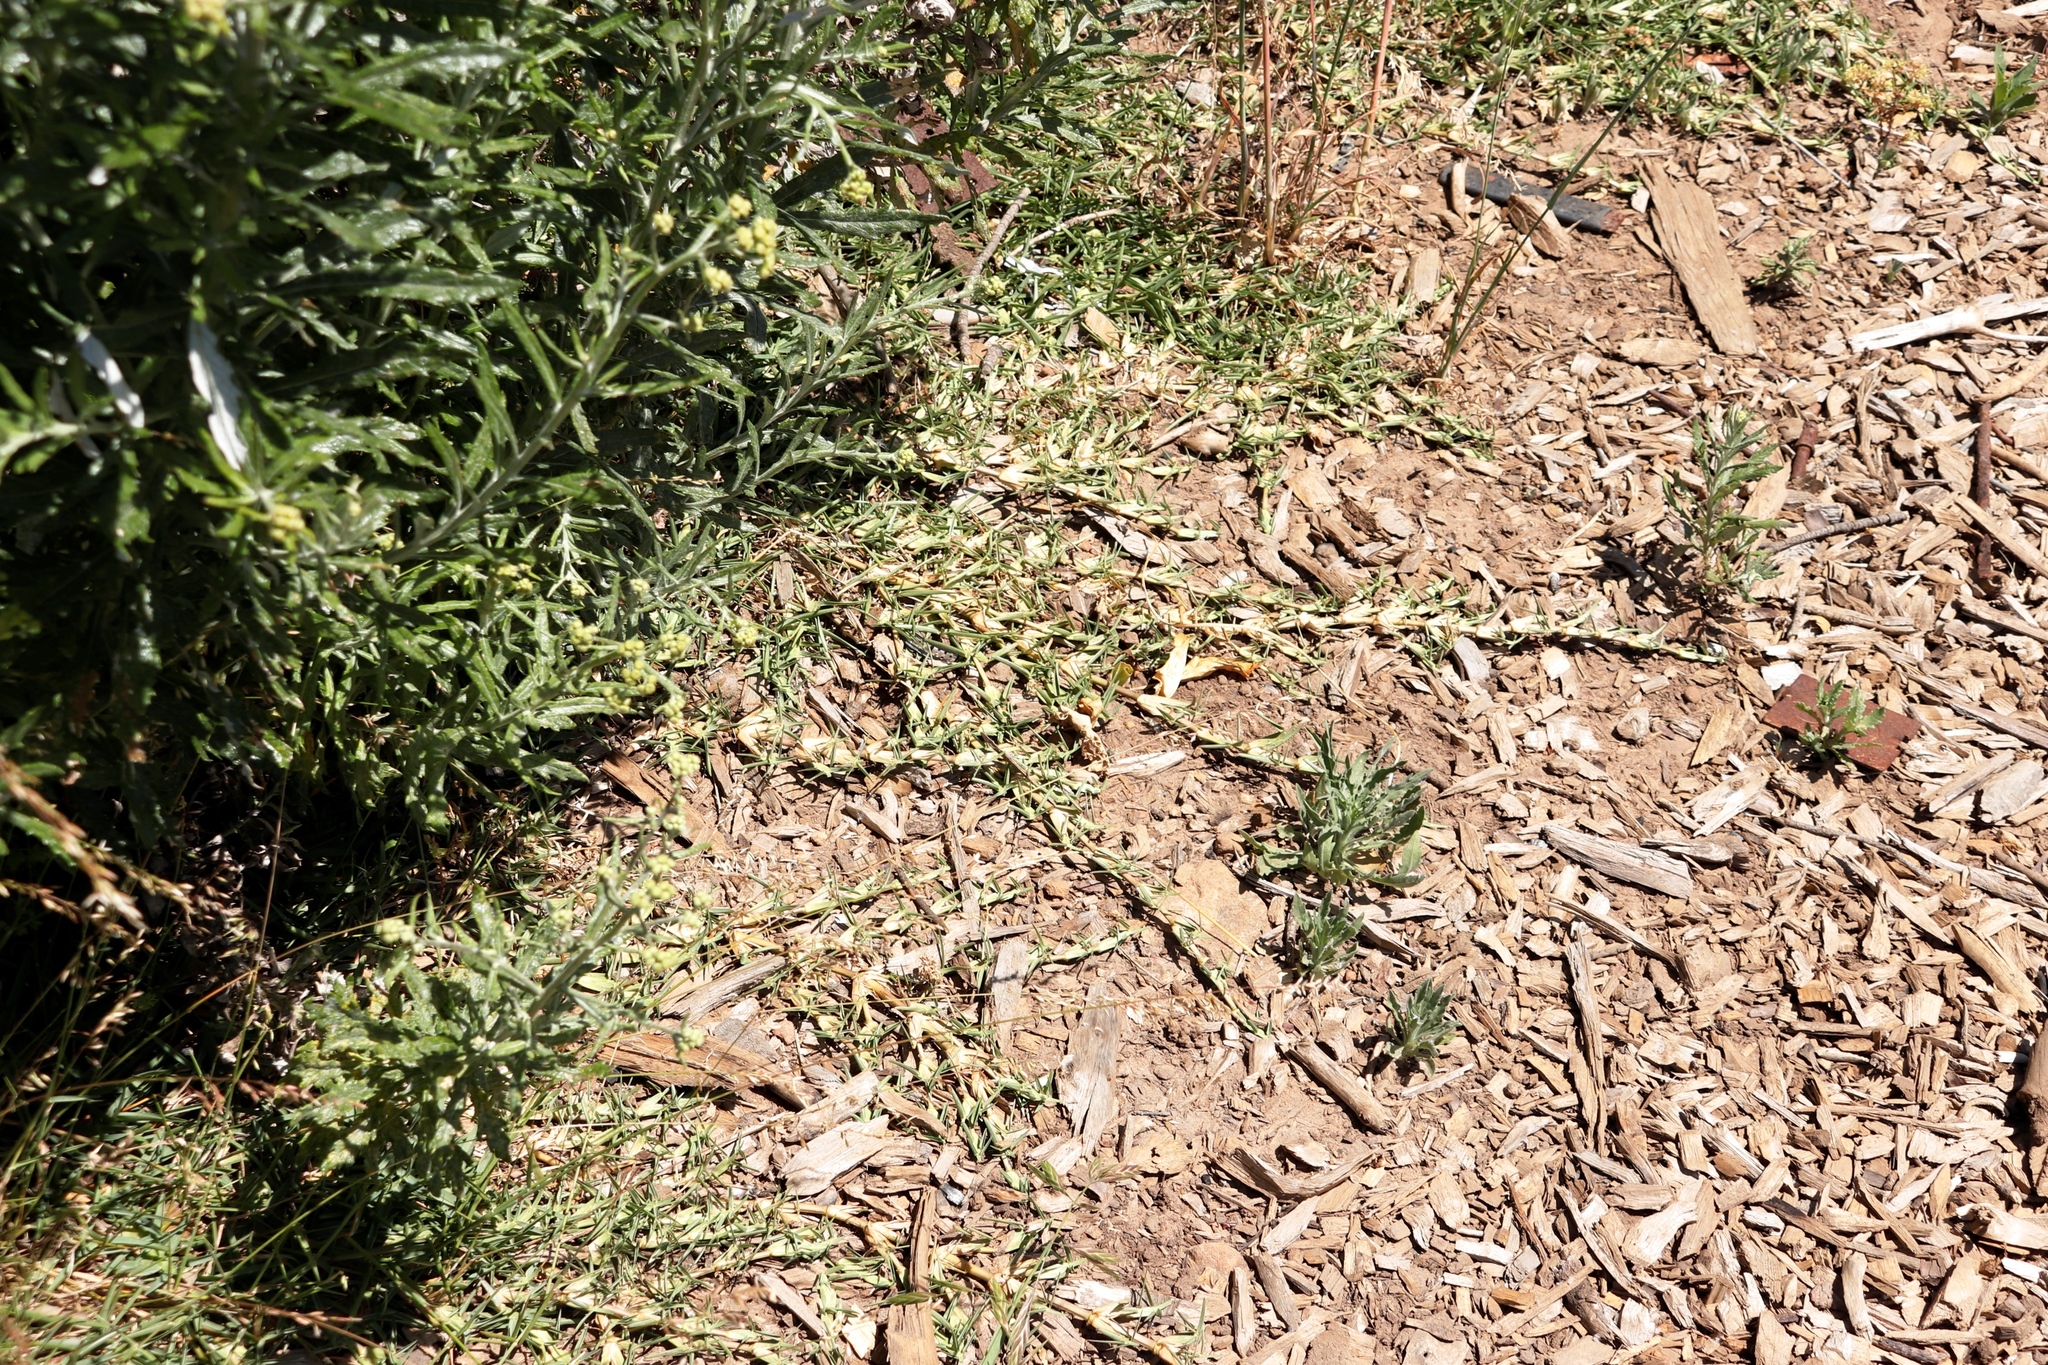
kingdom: Plantae
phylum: Tracheophyta
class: Liliopsida
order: Poales
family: Poaceae
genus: Stenotaphrum
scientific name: Stenotaphrum secundatum
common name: St. augustine grass
